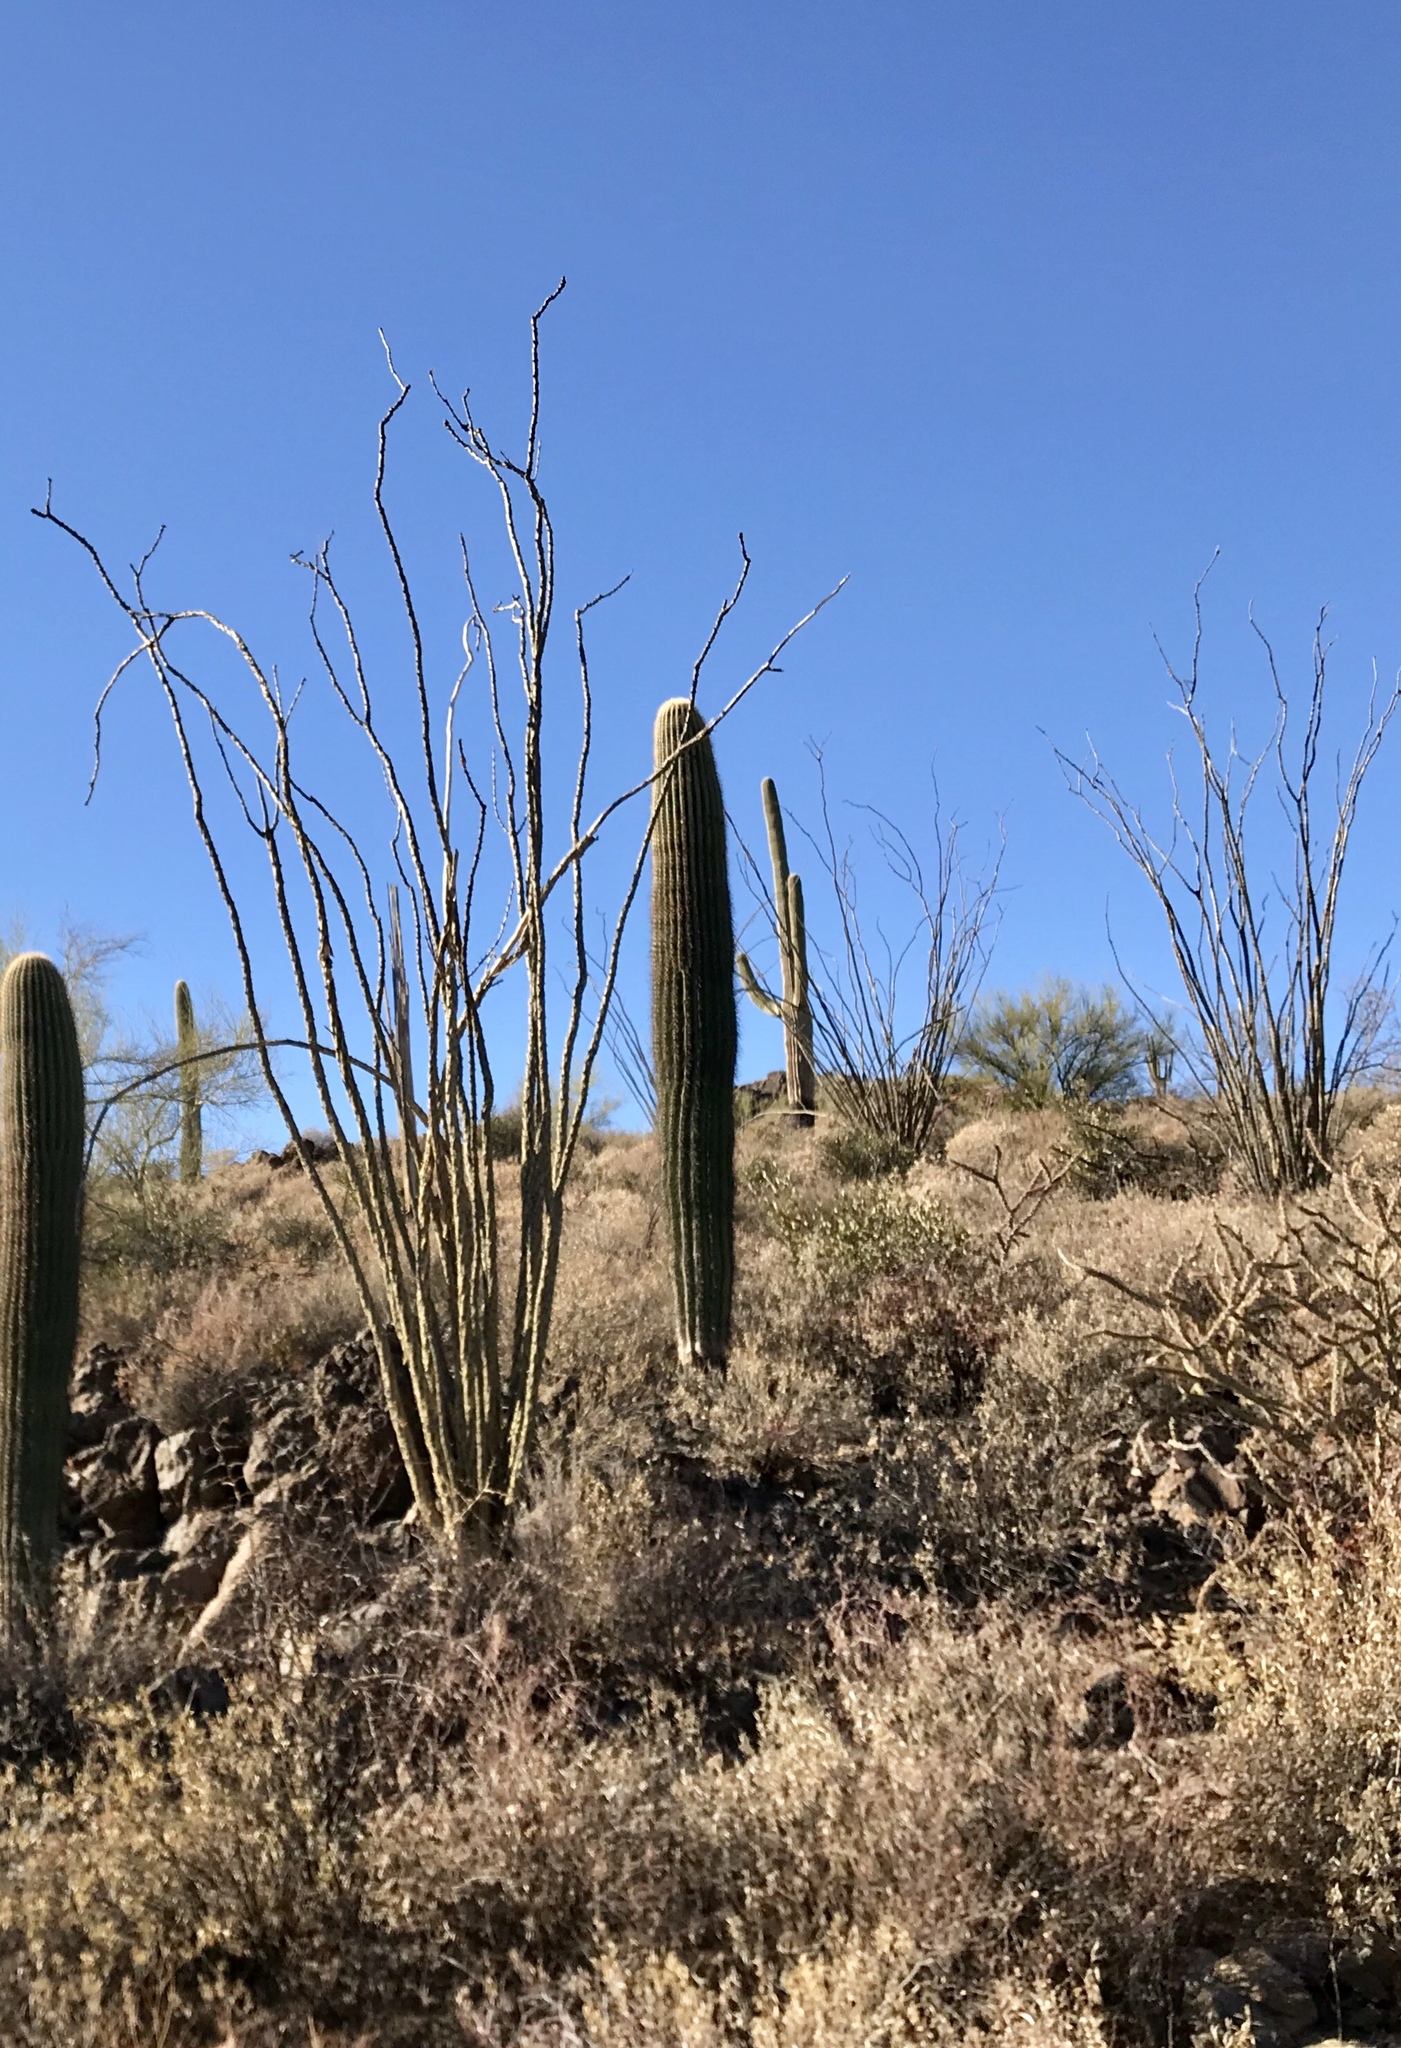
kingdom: Plantae
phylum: Tracheophyta
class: Magnoliopsida
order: Ericales
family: Fouquieriaceae
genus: Fouquieria
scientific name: Fouquieria splendens
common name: Vine-cactus
